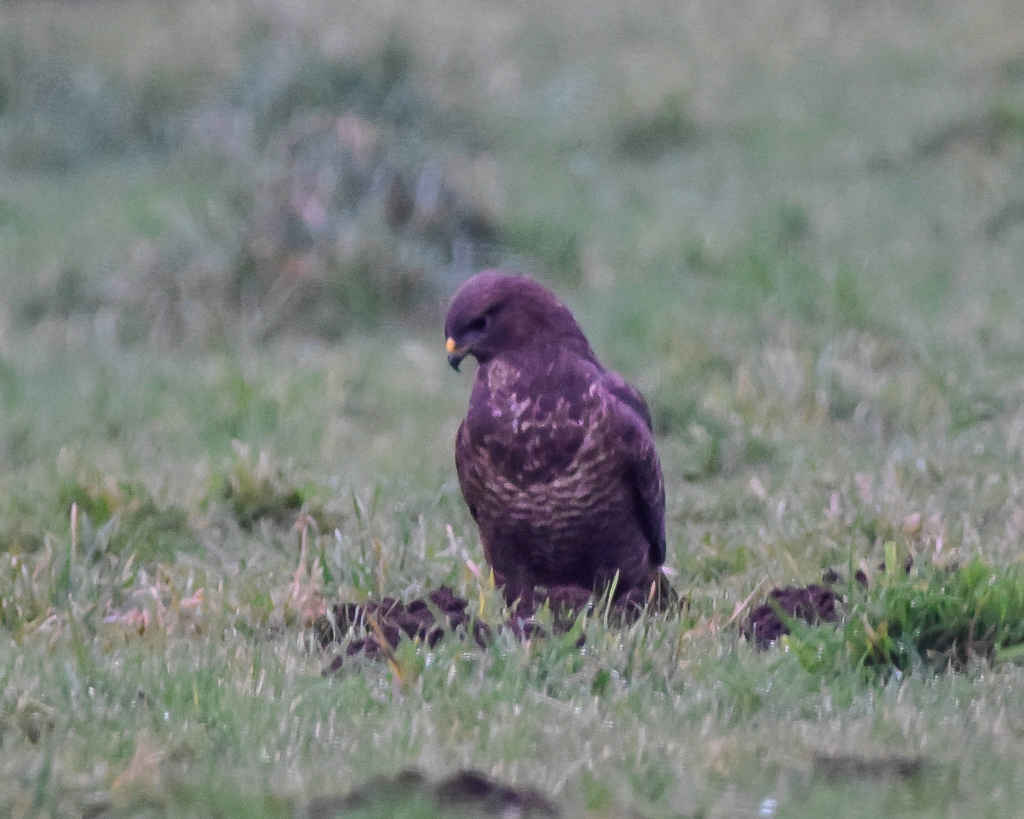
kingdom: Animalia
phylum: Chordata
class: Aves
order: Accipitriformes
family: Accipitridae
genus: Buteo
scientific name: Buteo buteo
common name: Common buzzard
